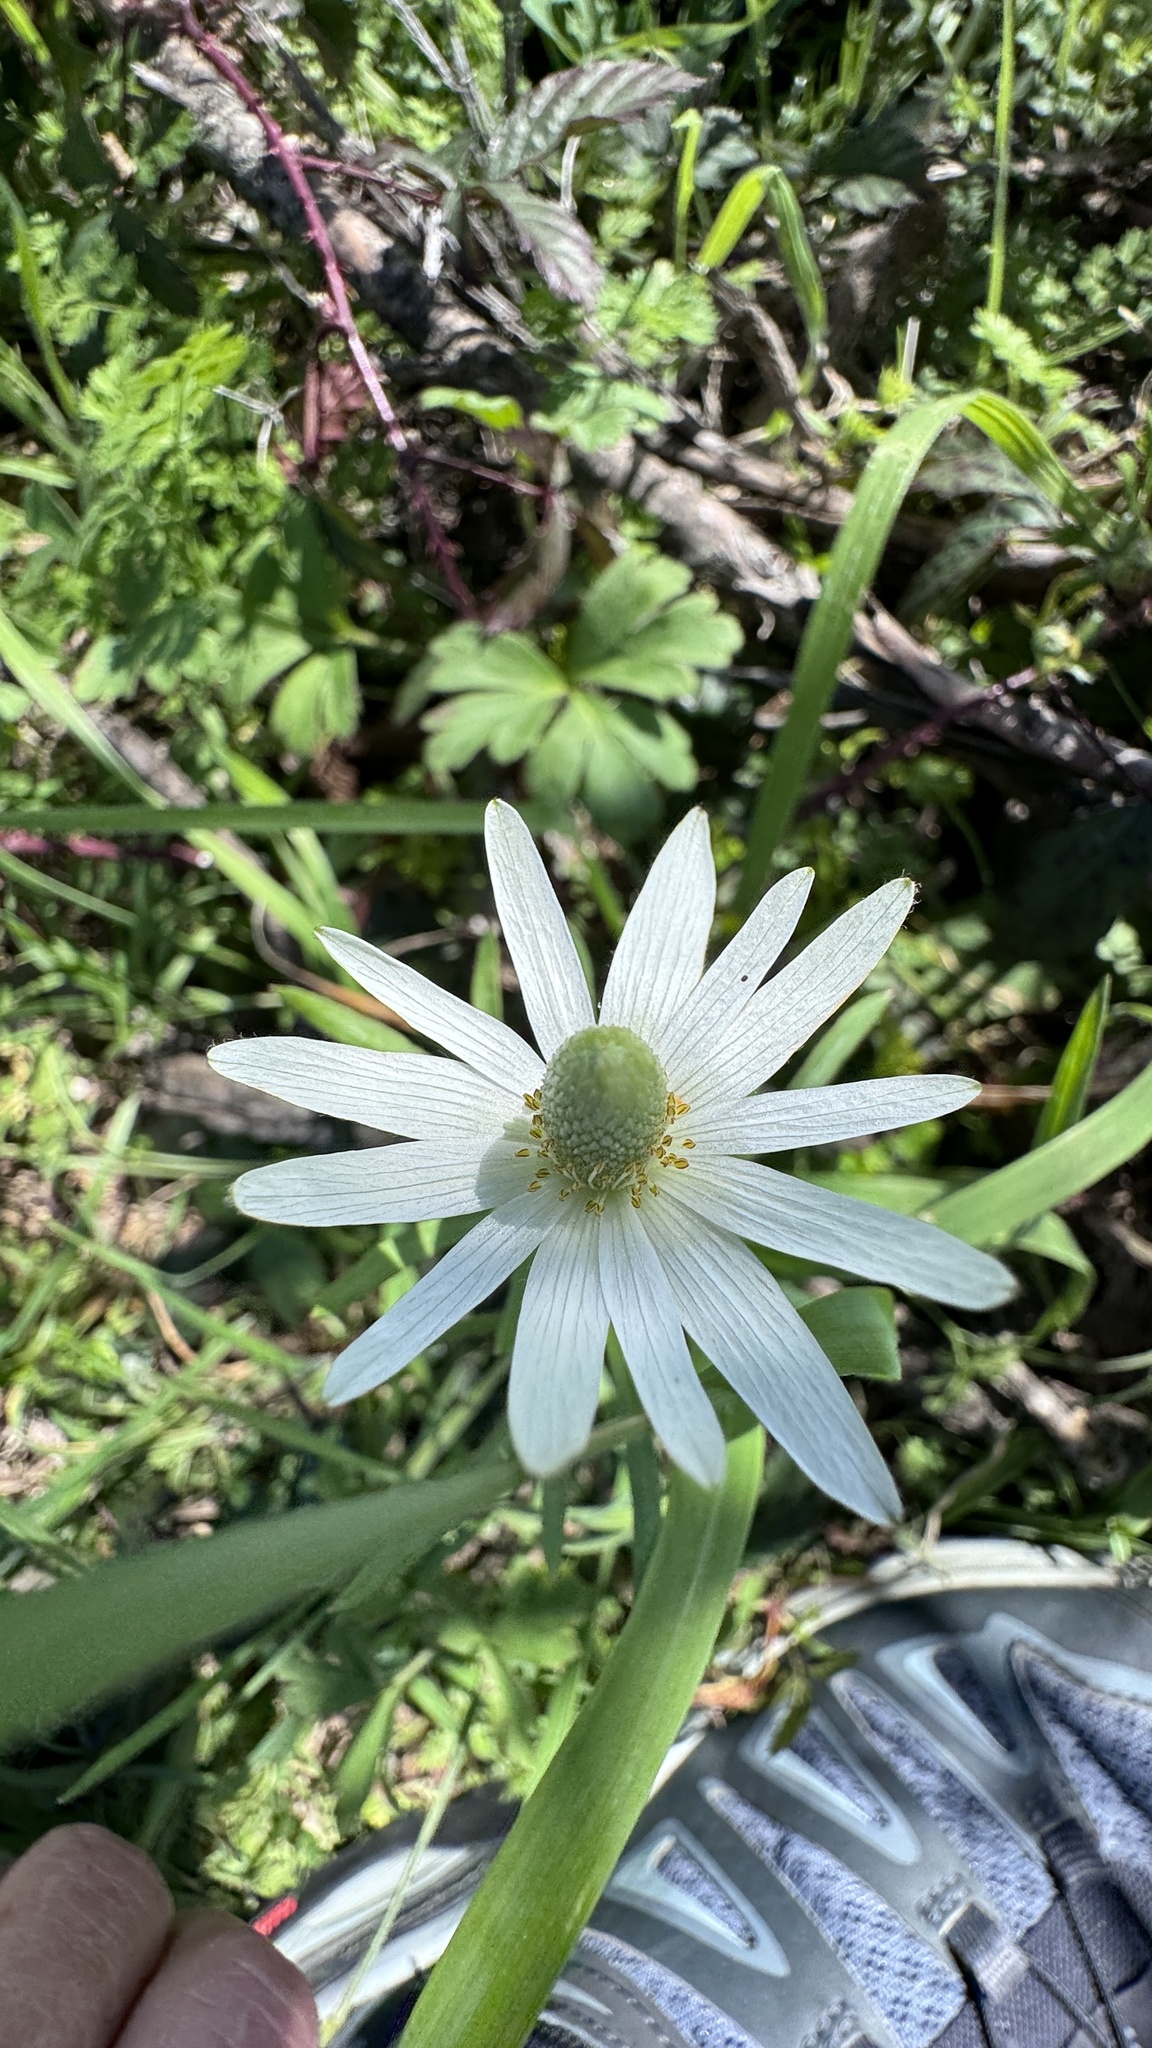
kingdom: Plantae
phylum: Tracheophyta
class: Magnoliopsida
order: Ranunculales
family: Ranunculaceae
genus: Anemone
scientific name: Anemone berlandieri
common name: Ten-petal anemone
